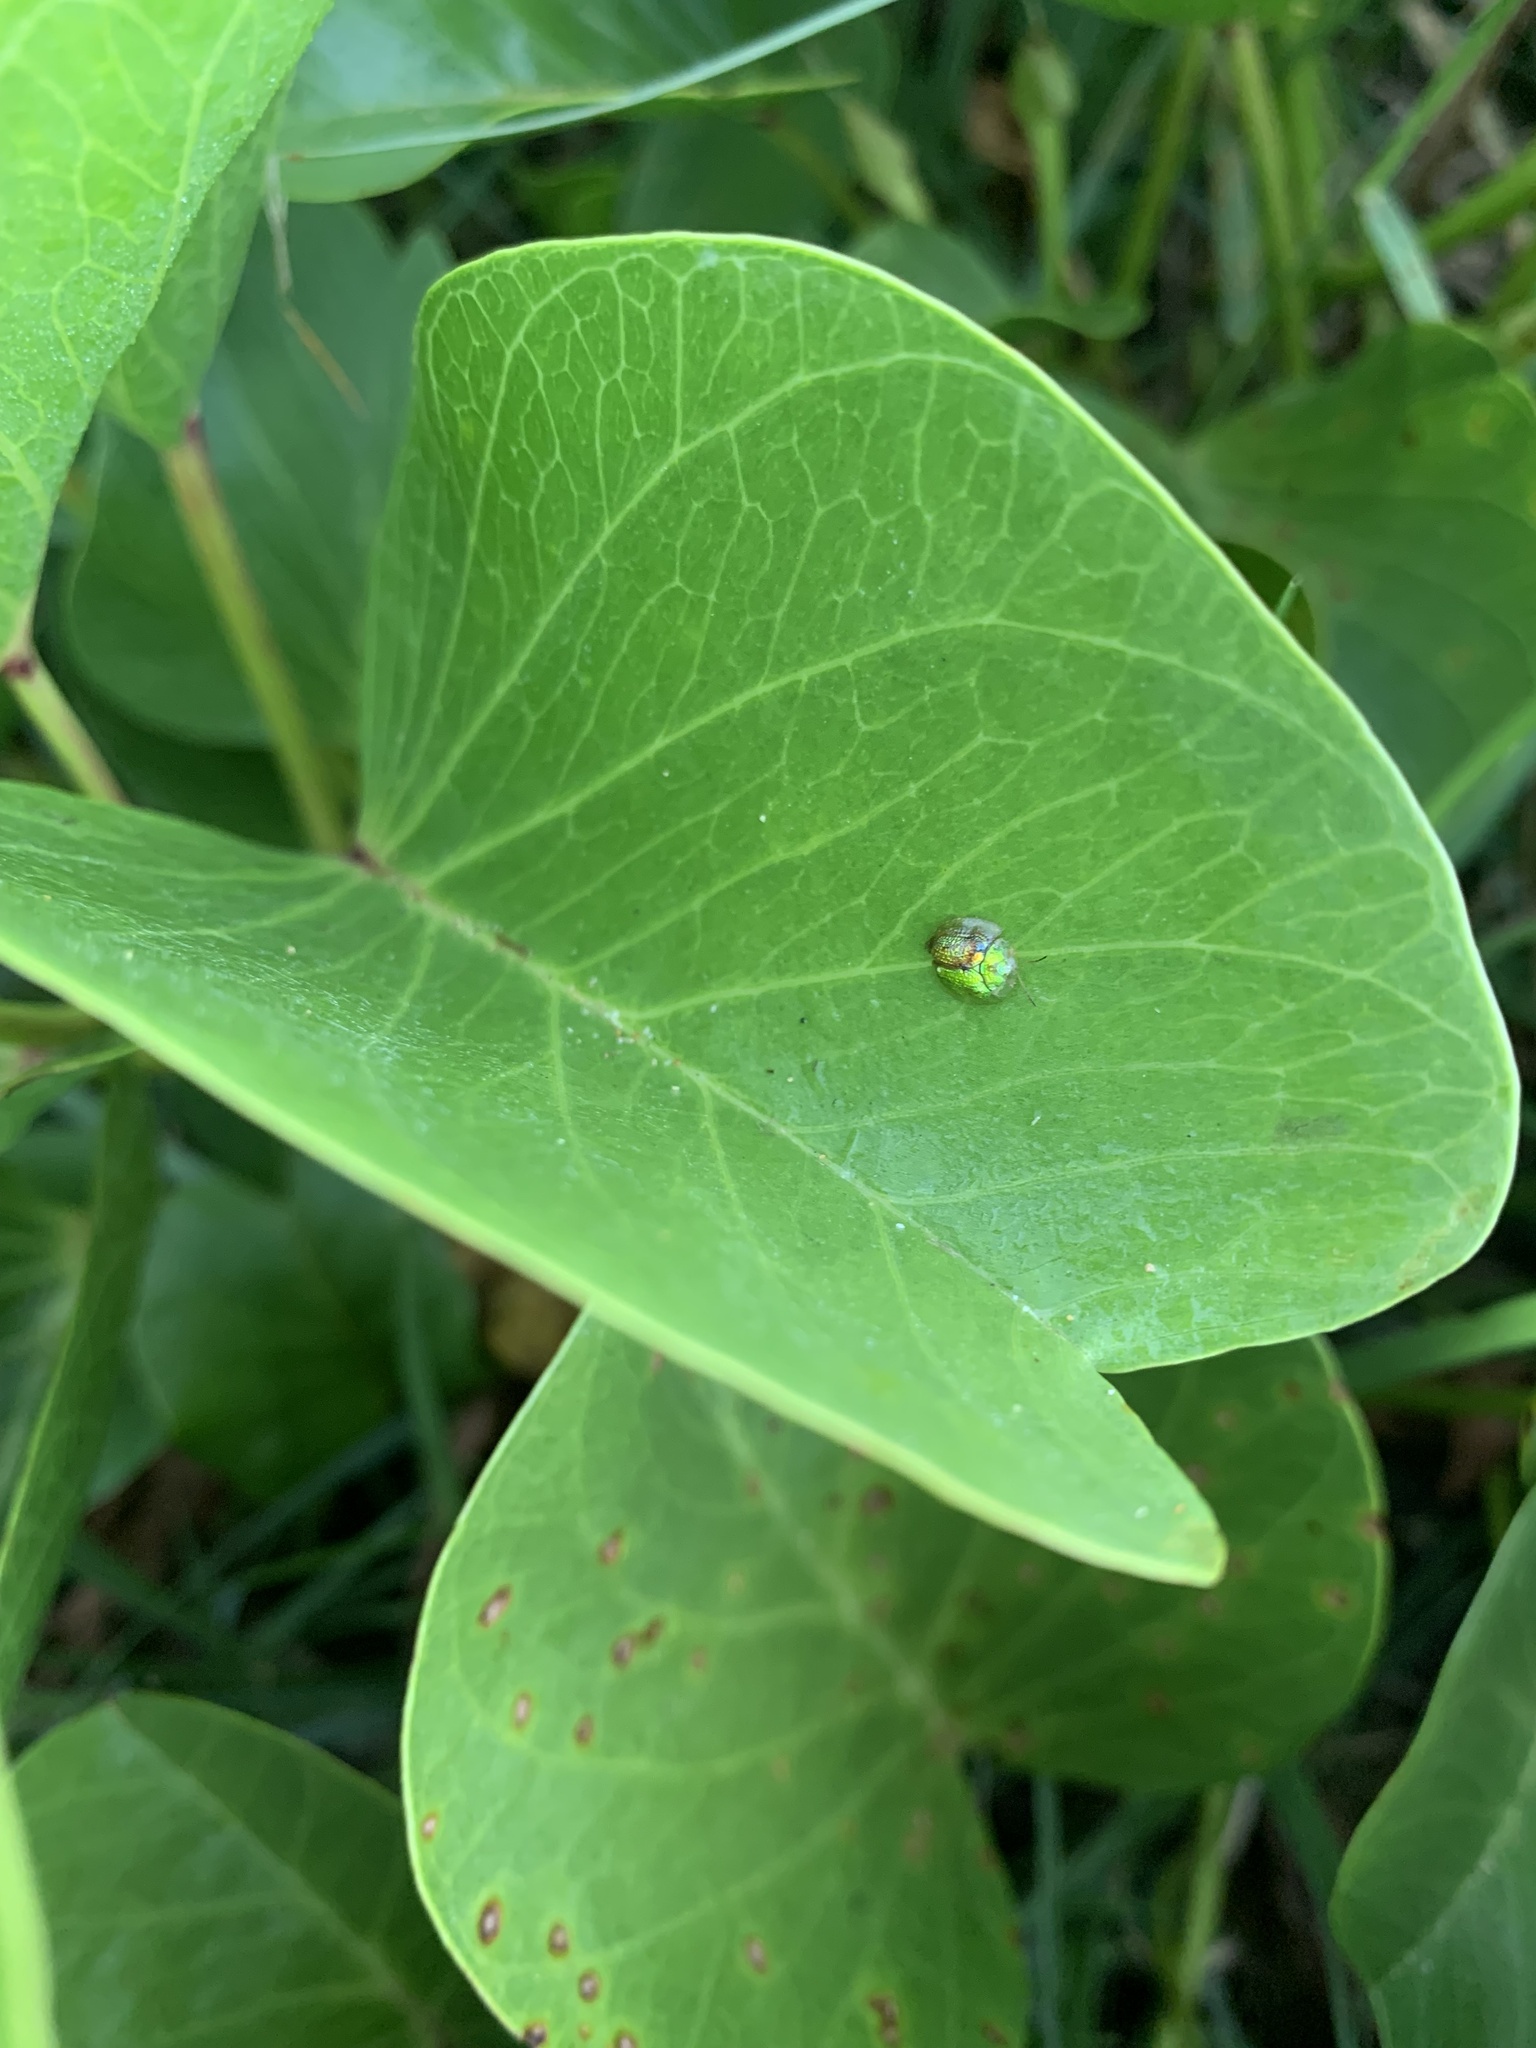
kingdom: Animalia
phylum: Arthropoda
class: Insecta
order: Coleoptera
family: Chrysomelidae
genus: Cassida
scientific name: Cassida circumdata
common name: Tortoise beetle
